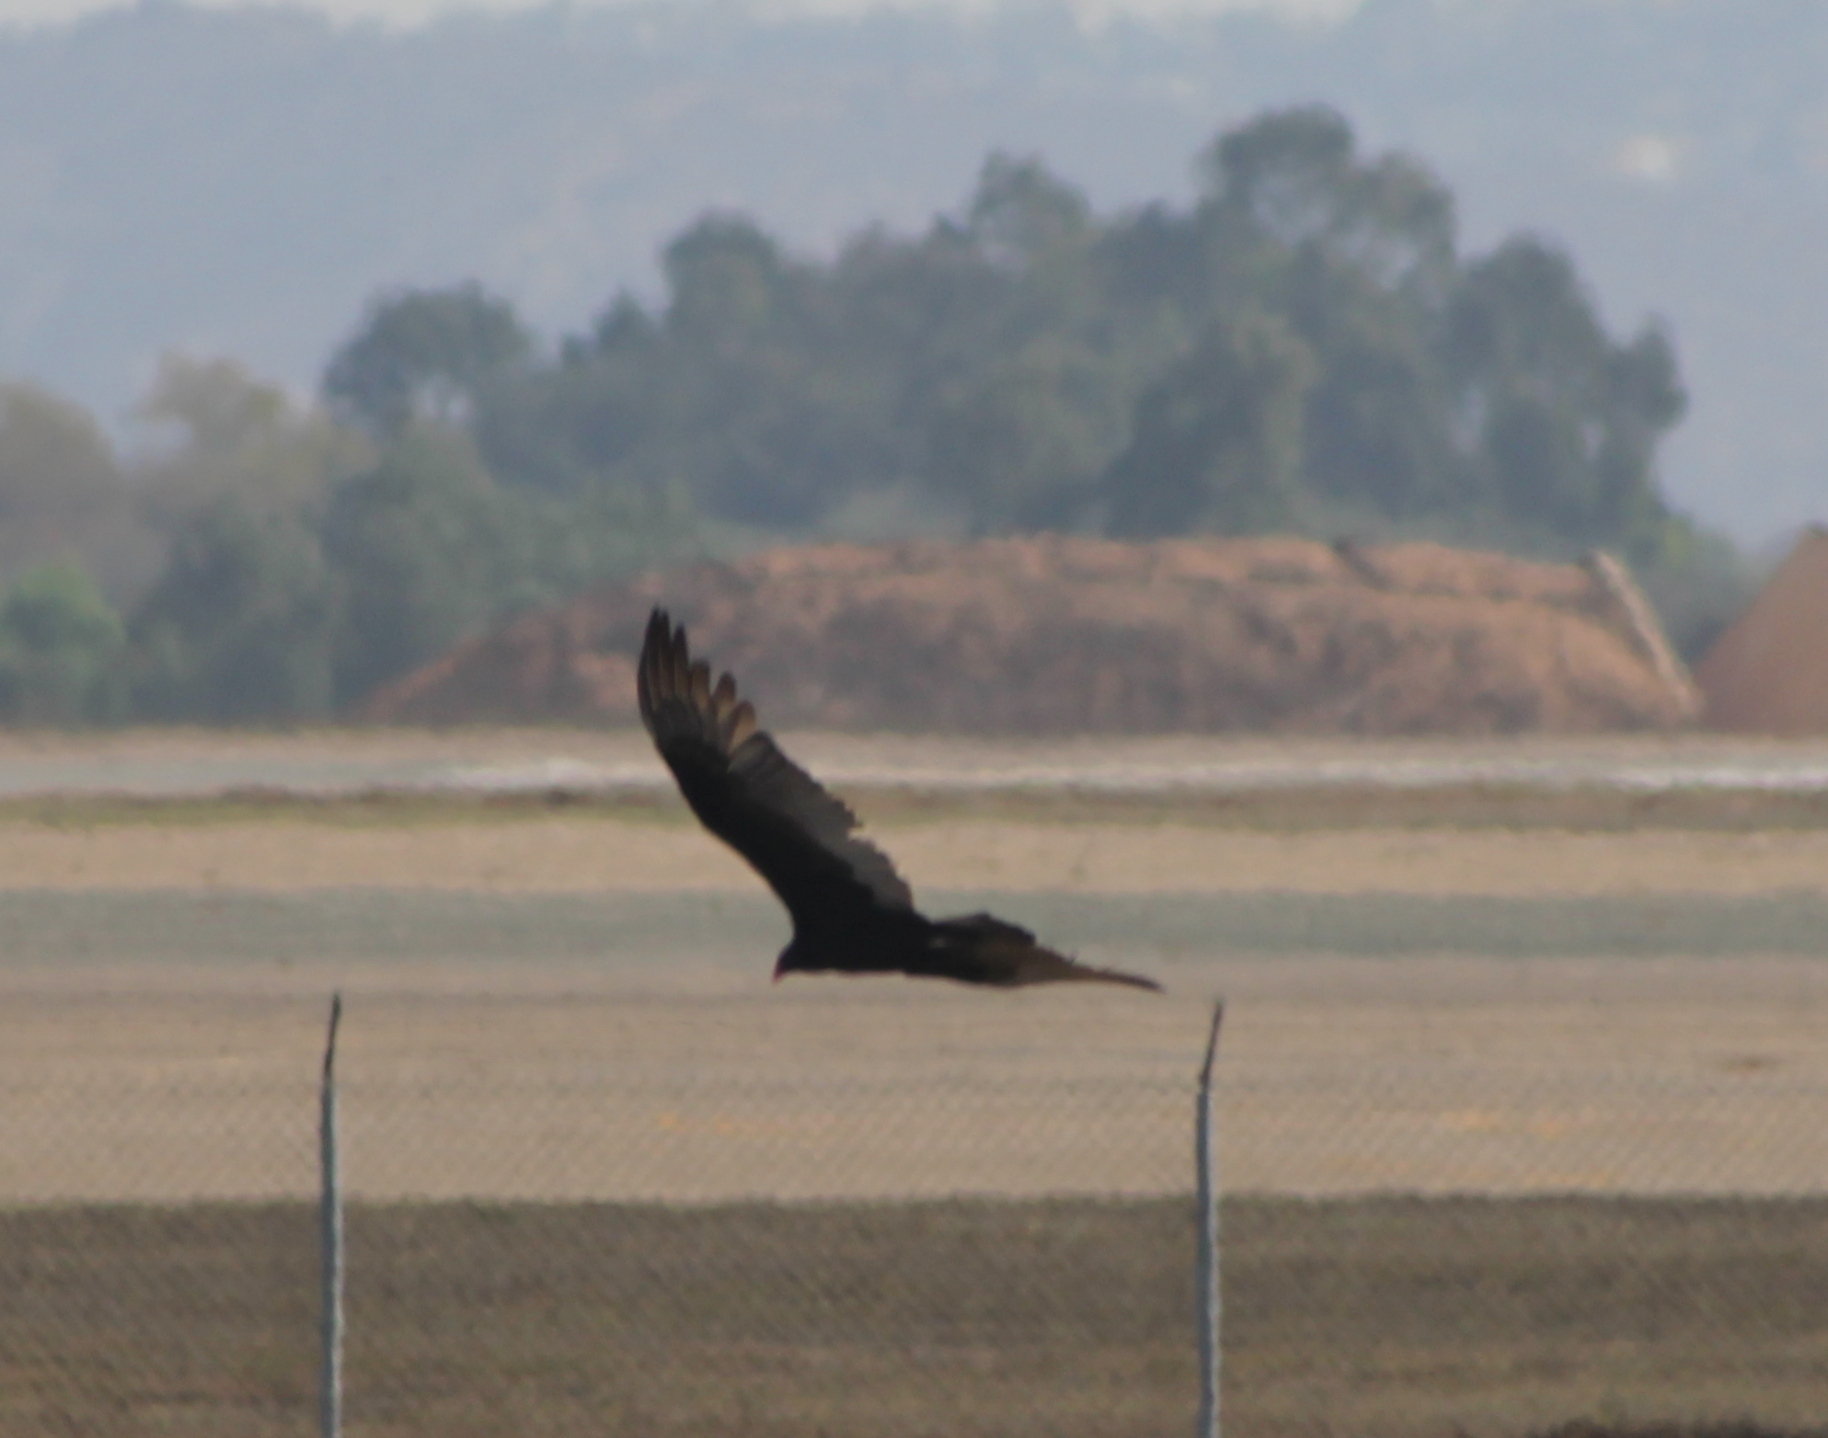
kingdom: Animalia
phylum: Chordata
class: Aves
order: Accipitriformes
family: Cathartidae
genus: Cathartes
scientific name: Cathartes aura
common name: Turkey vulture
